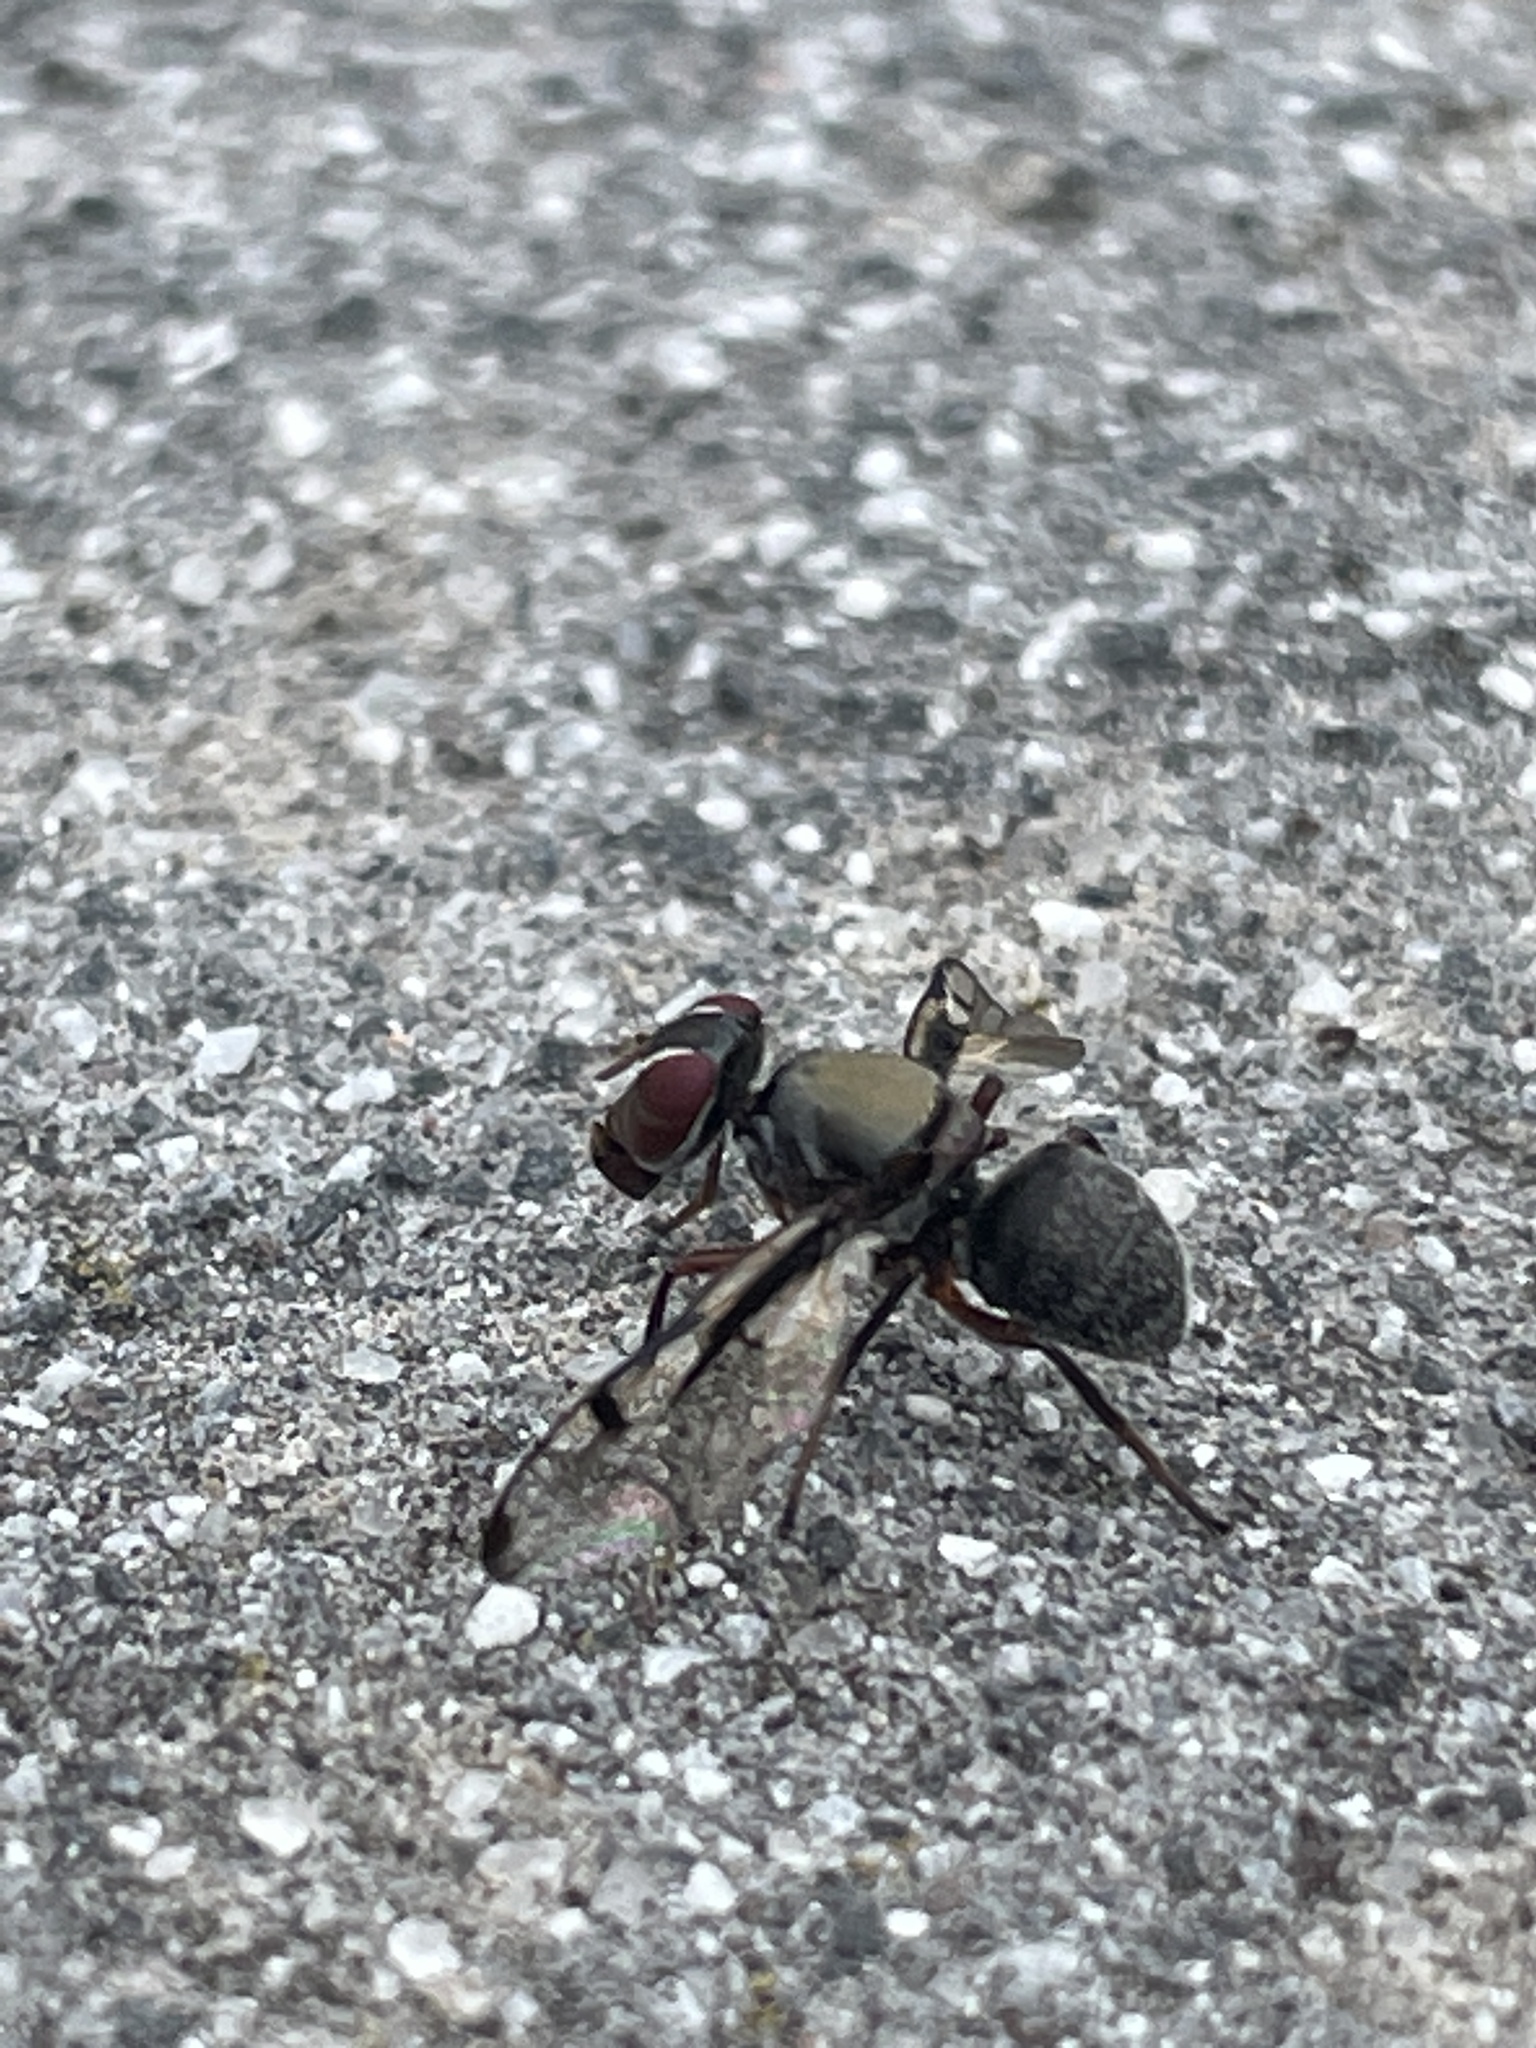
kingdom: Animalia
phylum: Arthropoda
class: Insecta
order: Diptera
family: Platystomatidae
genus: Pogonortalis
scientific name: Pogonortalis doclea
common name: Boatman fly
